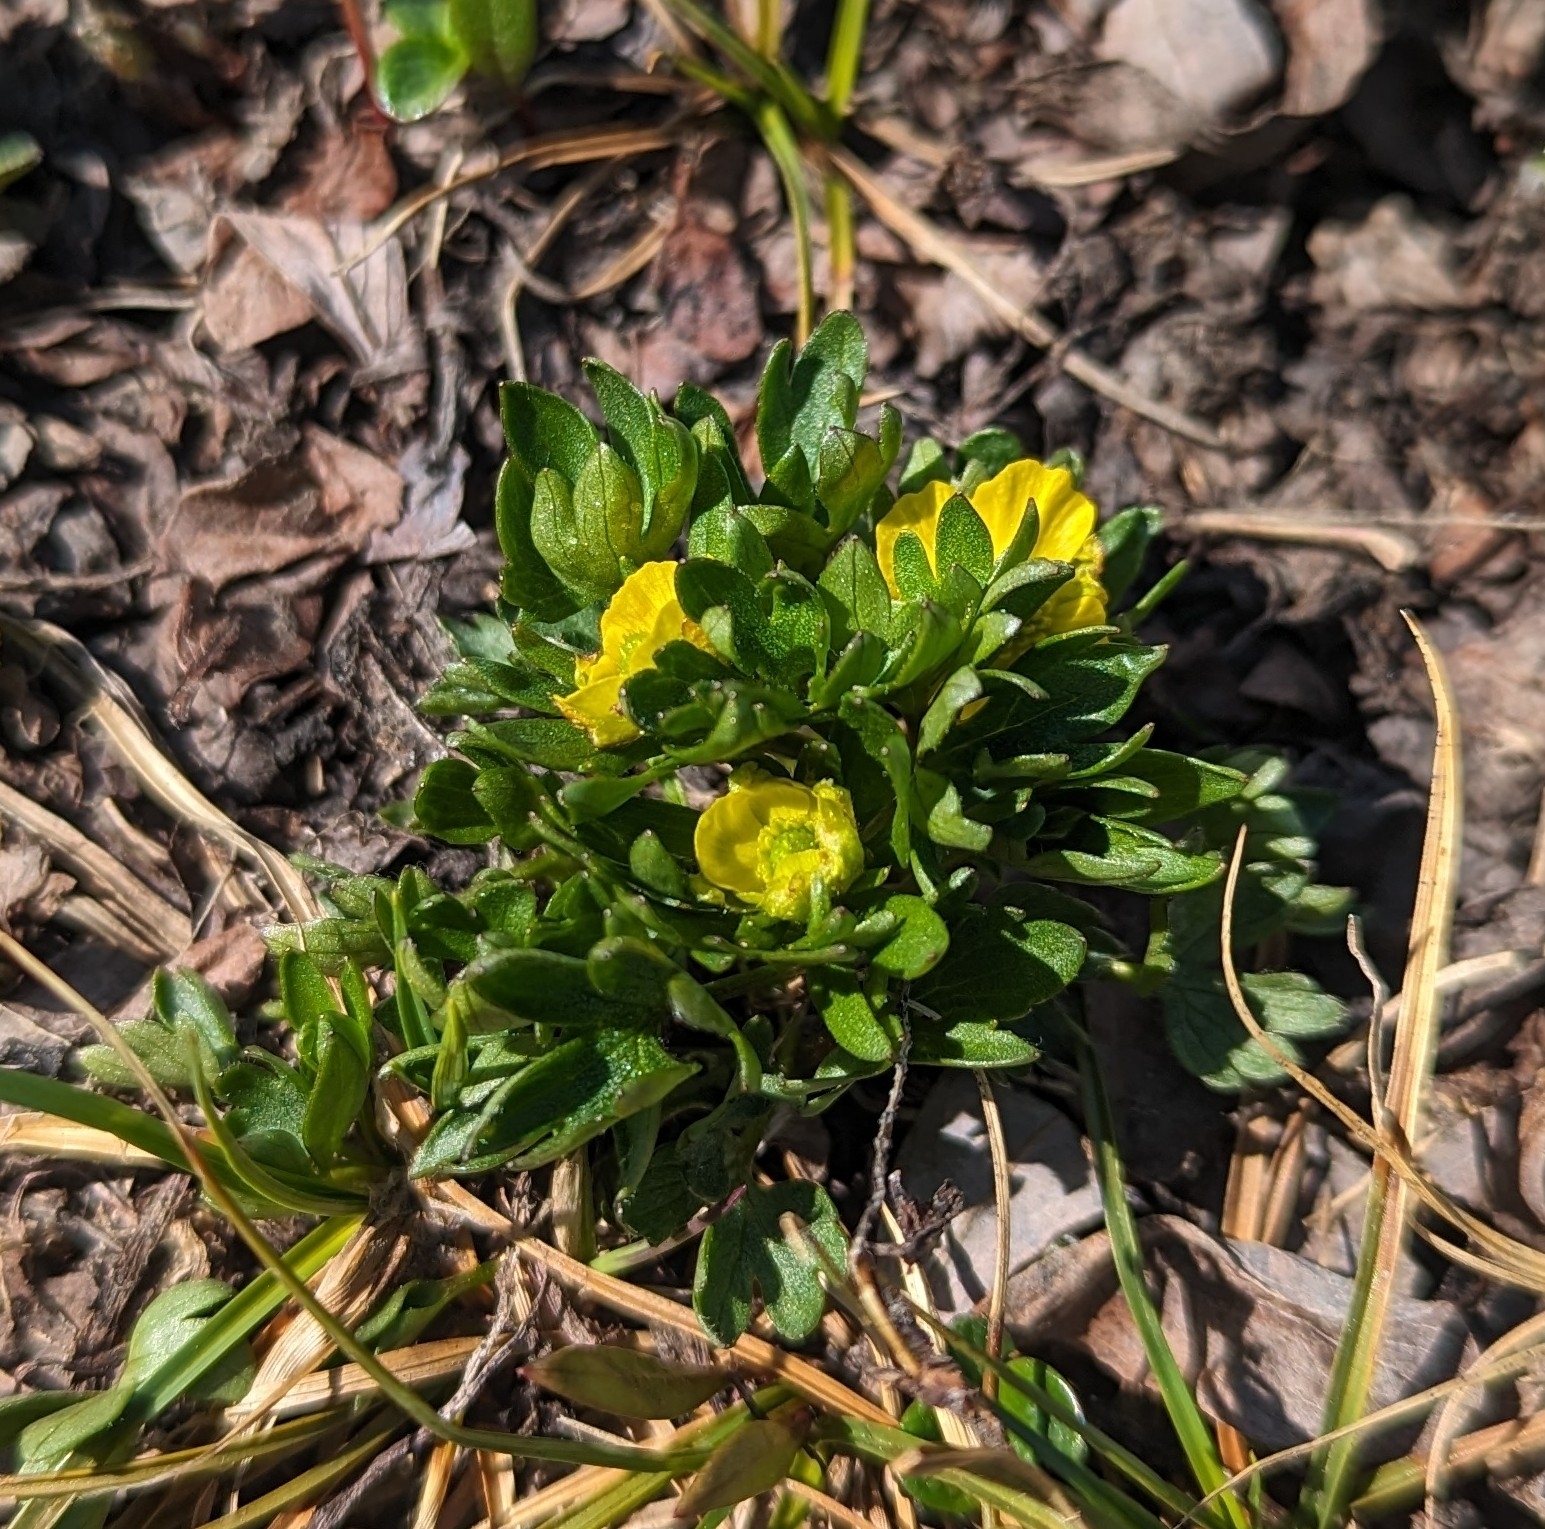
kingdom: Plantae
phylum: Tracheophyta
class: Magnoliopsida
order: Ranunculales
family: Ranunculaceae
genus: Ranunculus
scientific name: Ranunculus eschscholtzii
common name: Eschscholtz's buttercup
